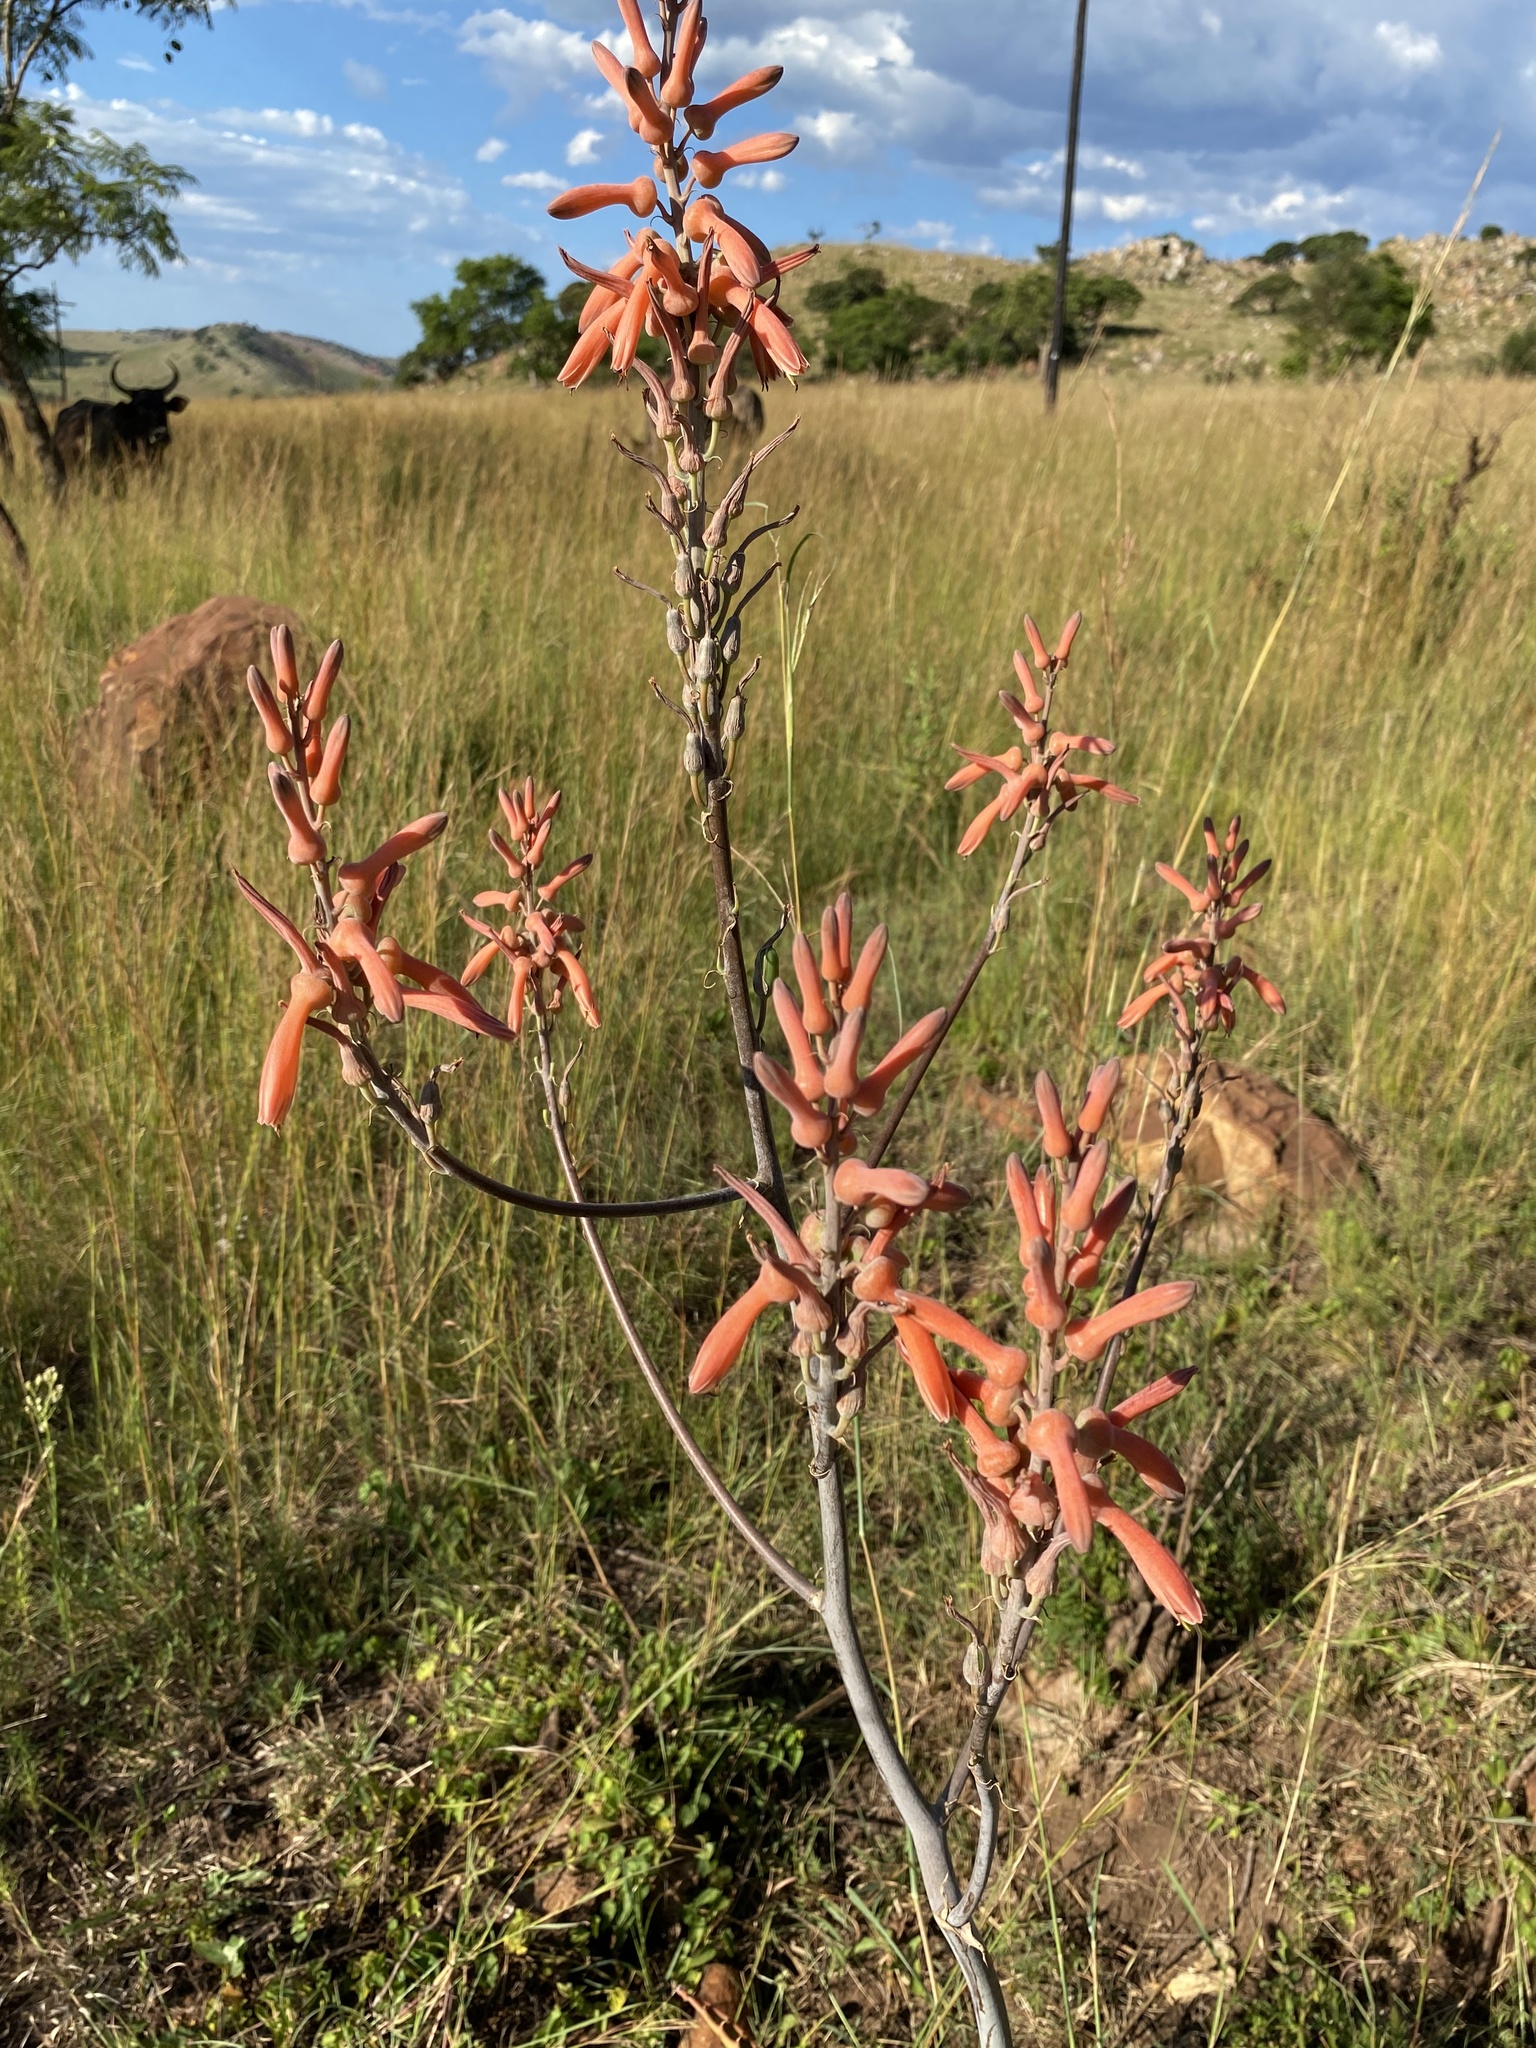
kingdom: Plantae
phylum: Tracheophyta
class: Liliopsida
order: Asparagales
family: Asphodelaceae
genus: Aloe
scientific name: Aloe dewetii
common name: De wet's aloe
